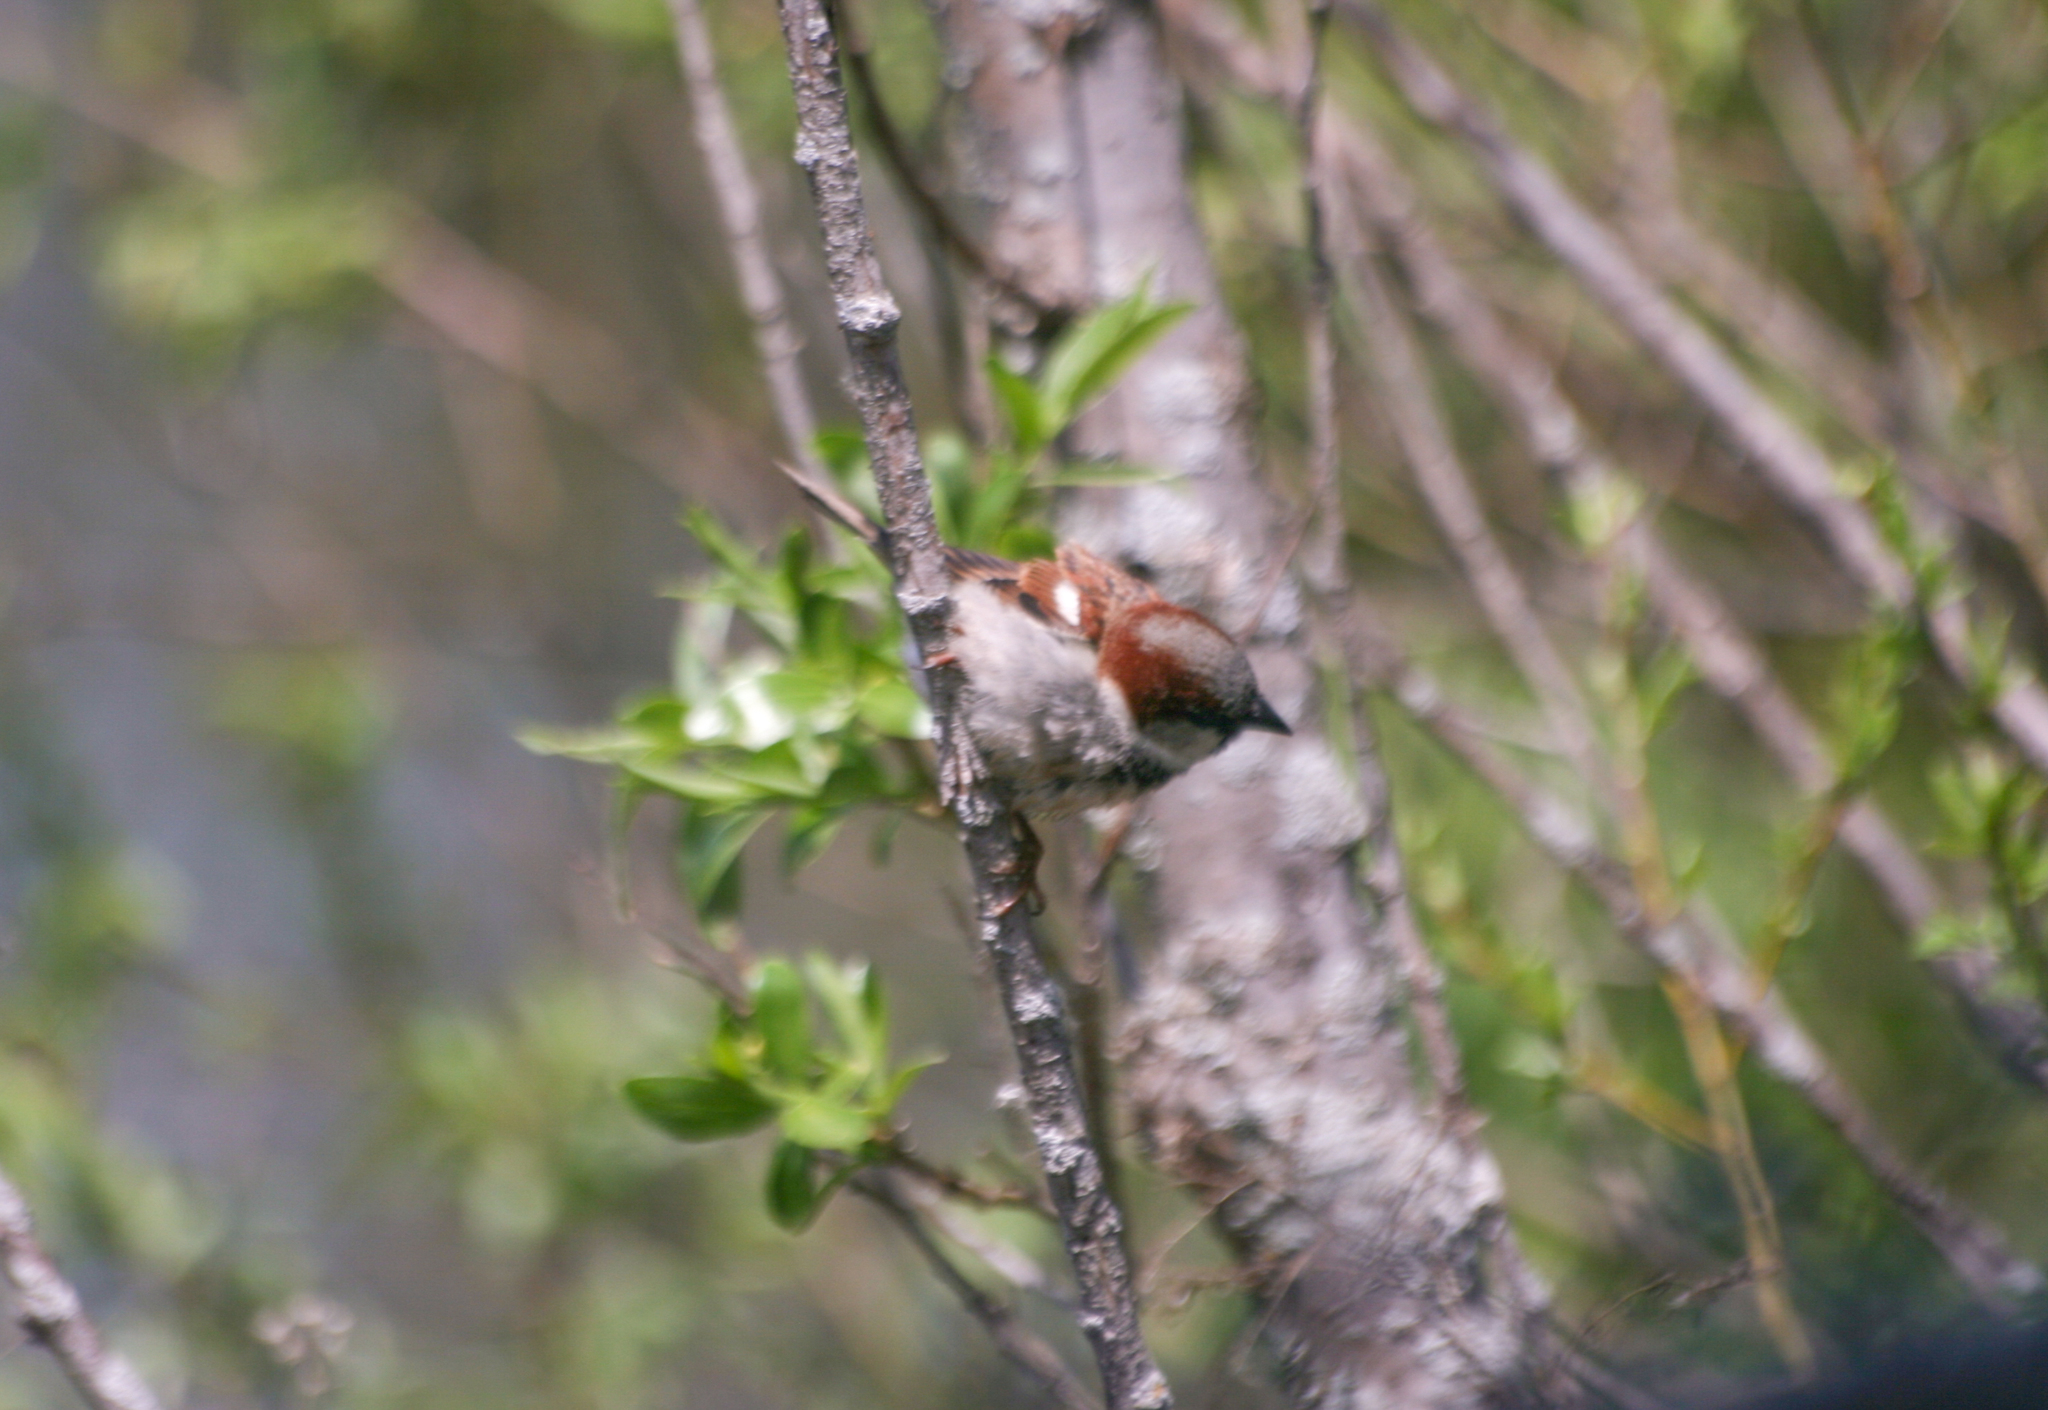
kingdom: Animalia
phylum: Chordata
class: Aves
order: Passeriformes
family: Passeridae
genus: Passer
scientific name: Passer domesticus
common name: House sparrow
